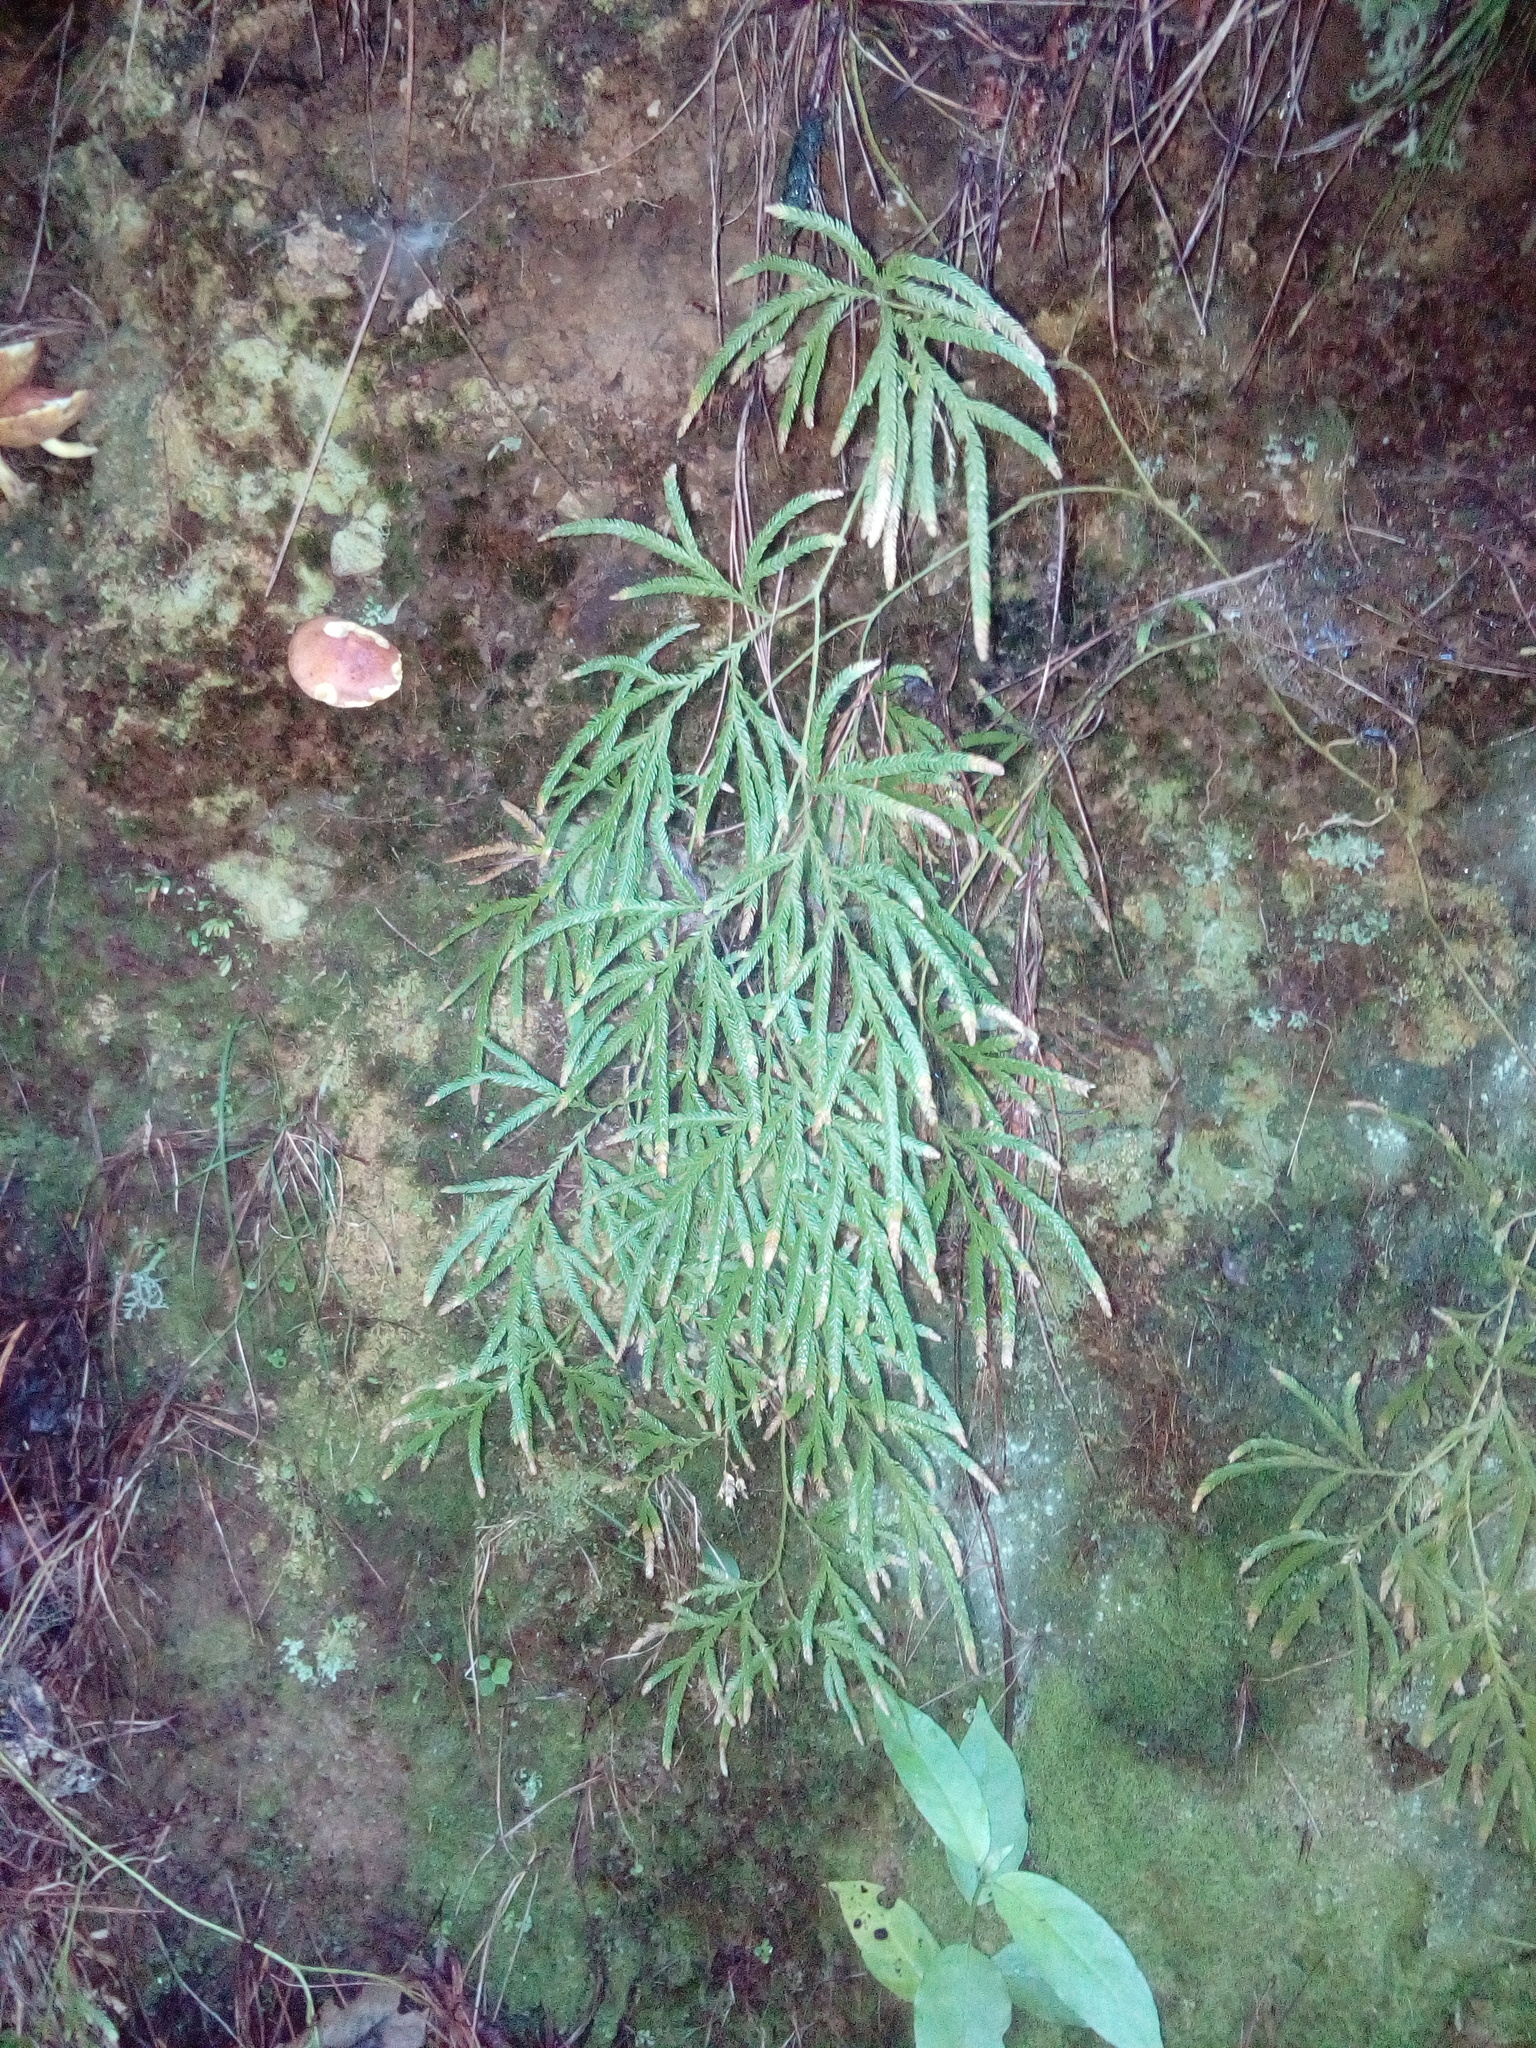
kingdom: Plantae
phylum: Tracheophyta
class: Lycopodiopsida
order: Lycopodiales
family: Lycopodiaceae
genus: Lycopodium
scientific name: Lycopodium volubile
